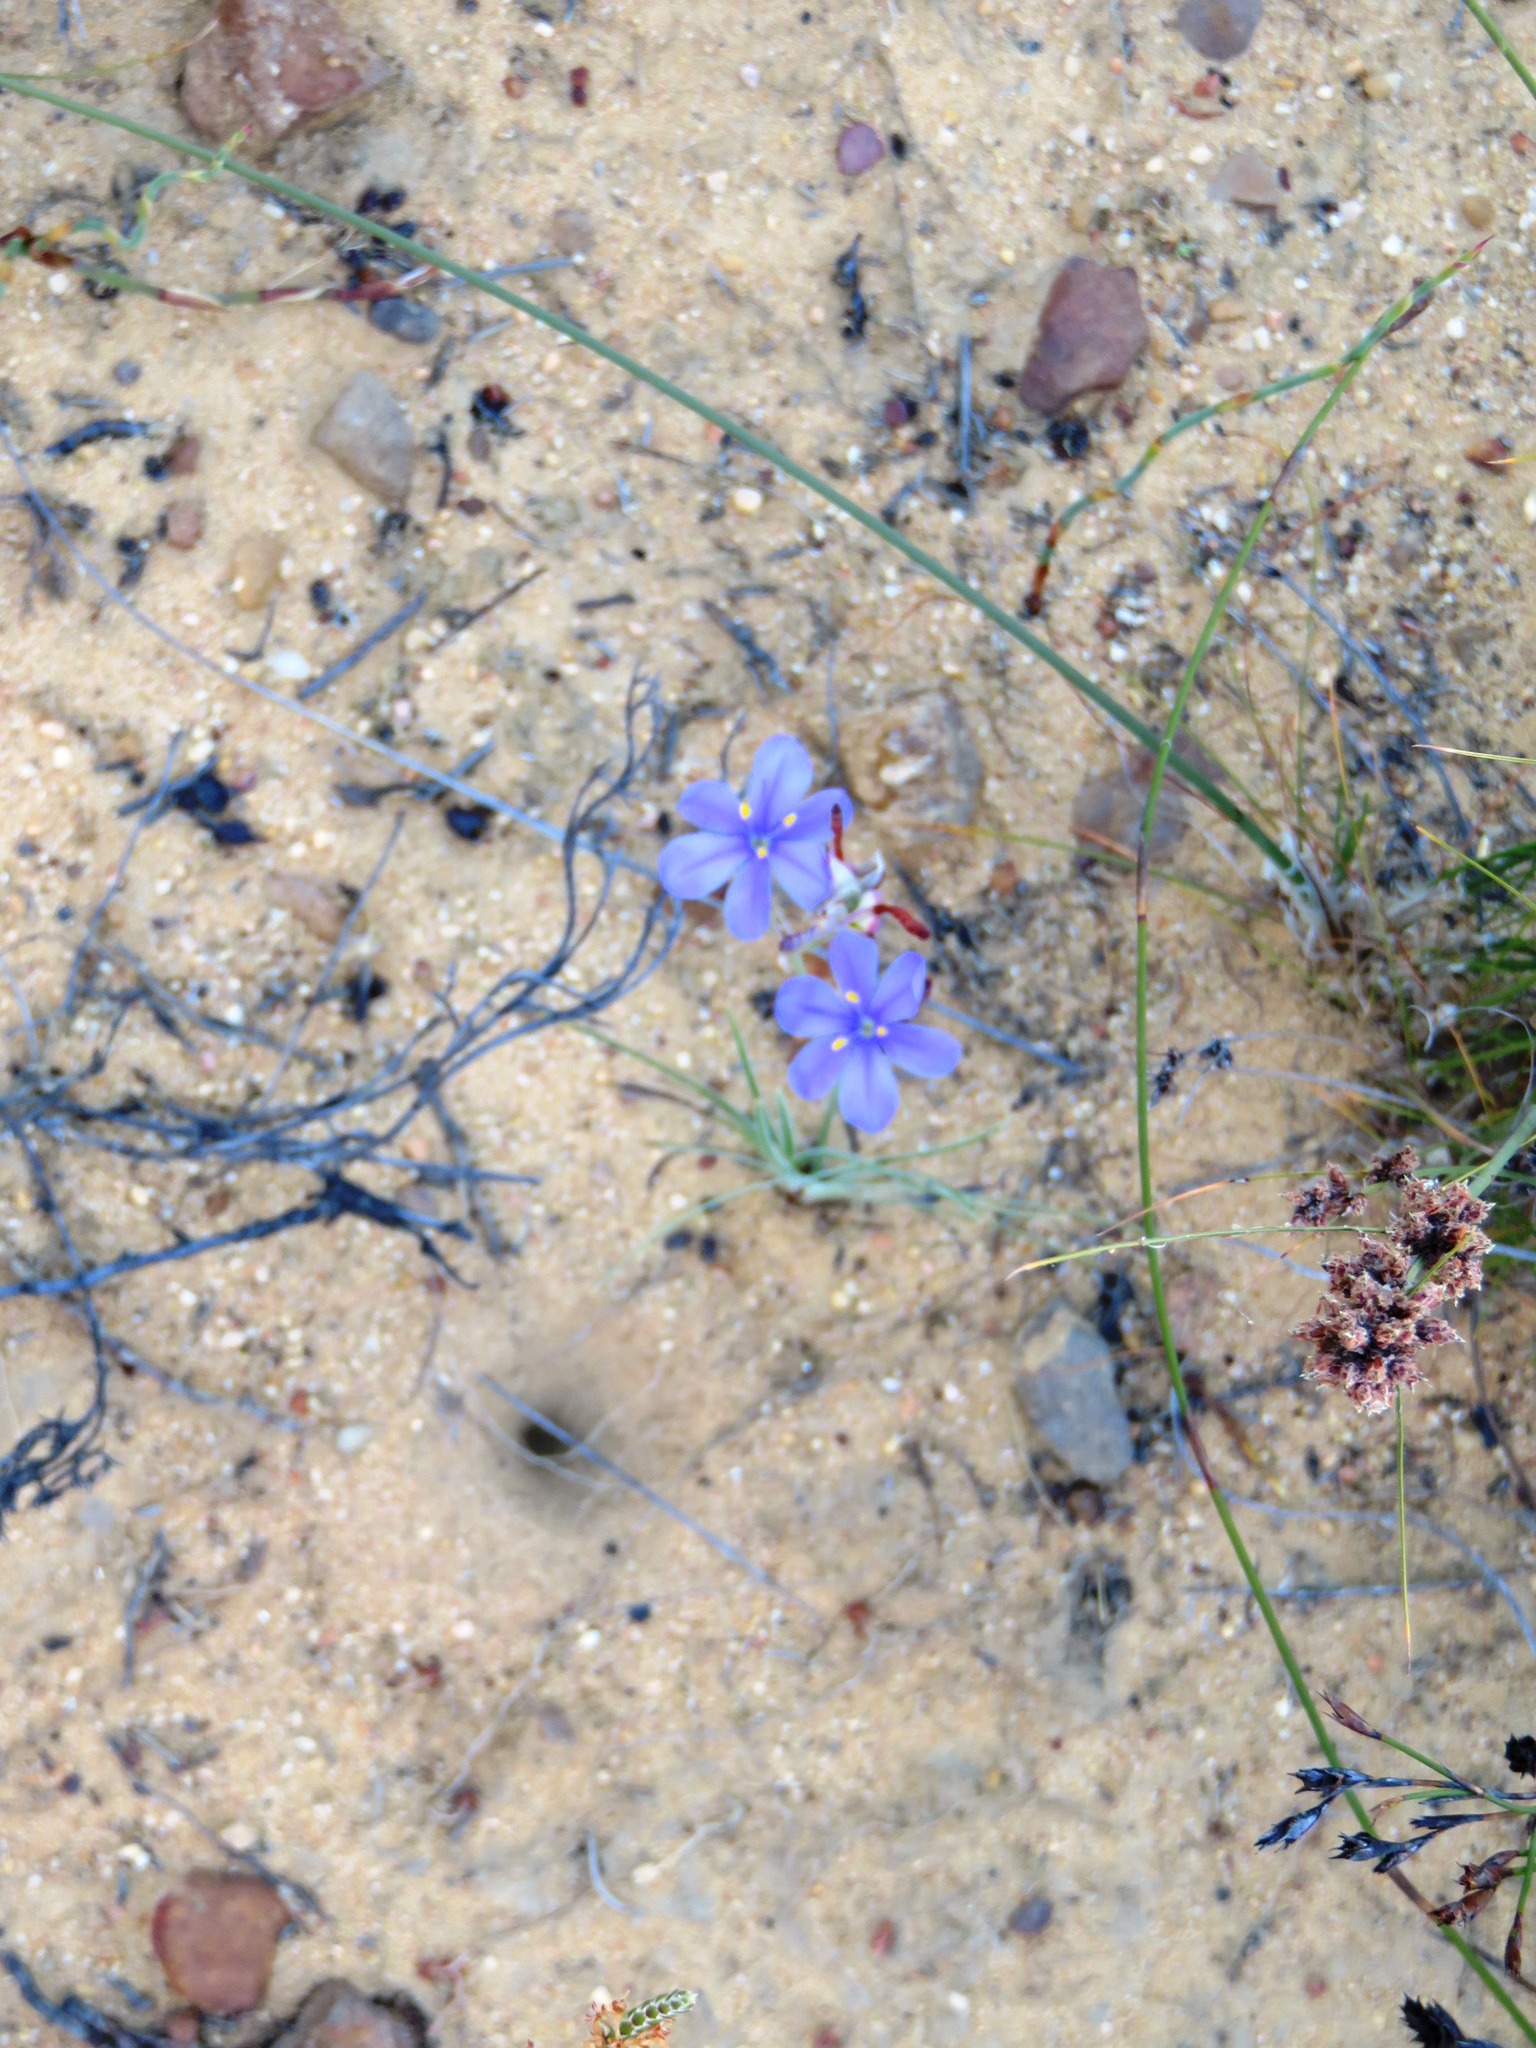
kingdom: Plantae
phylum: Tracheophyta
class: Liliopsida
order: Asparagales
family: Iridaceae
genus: Aristea
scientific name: Aristea dichotoma
